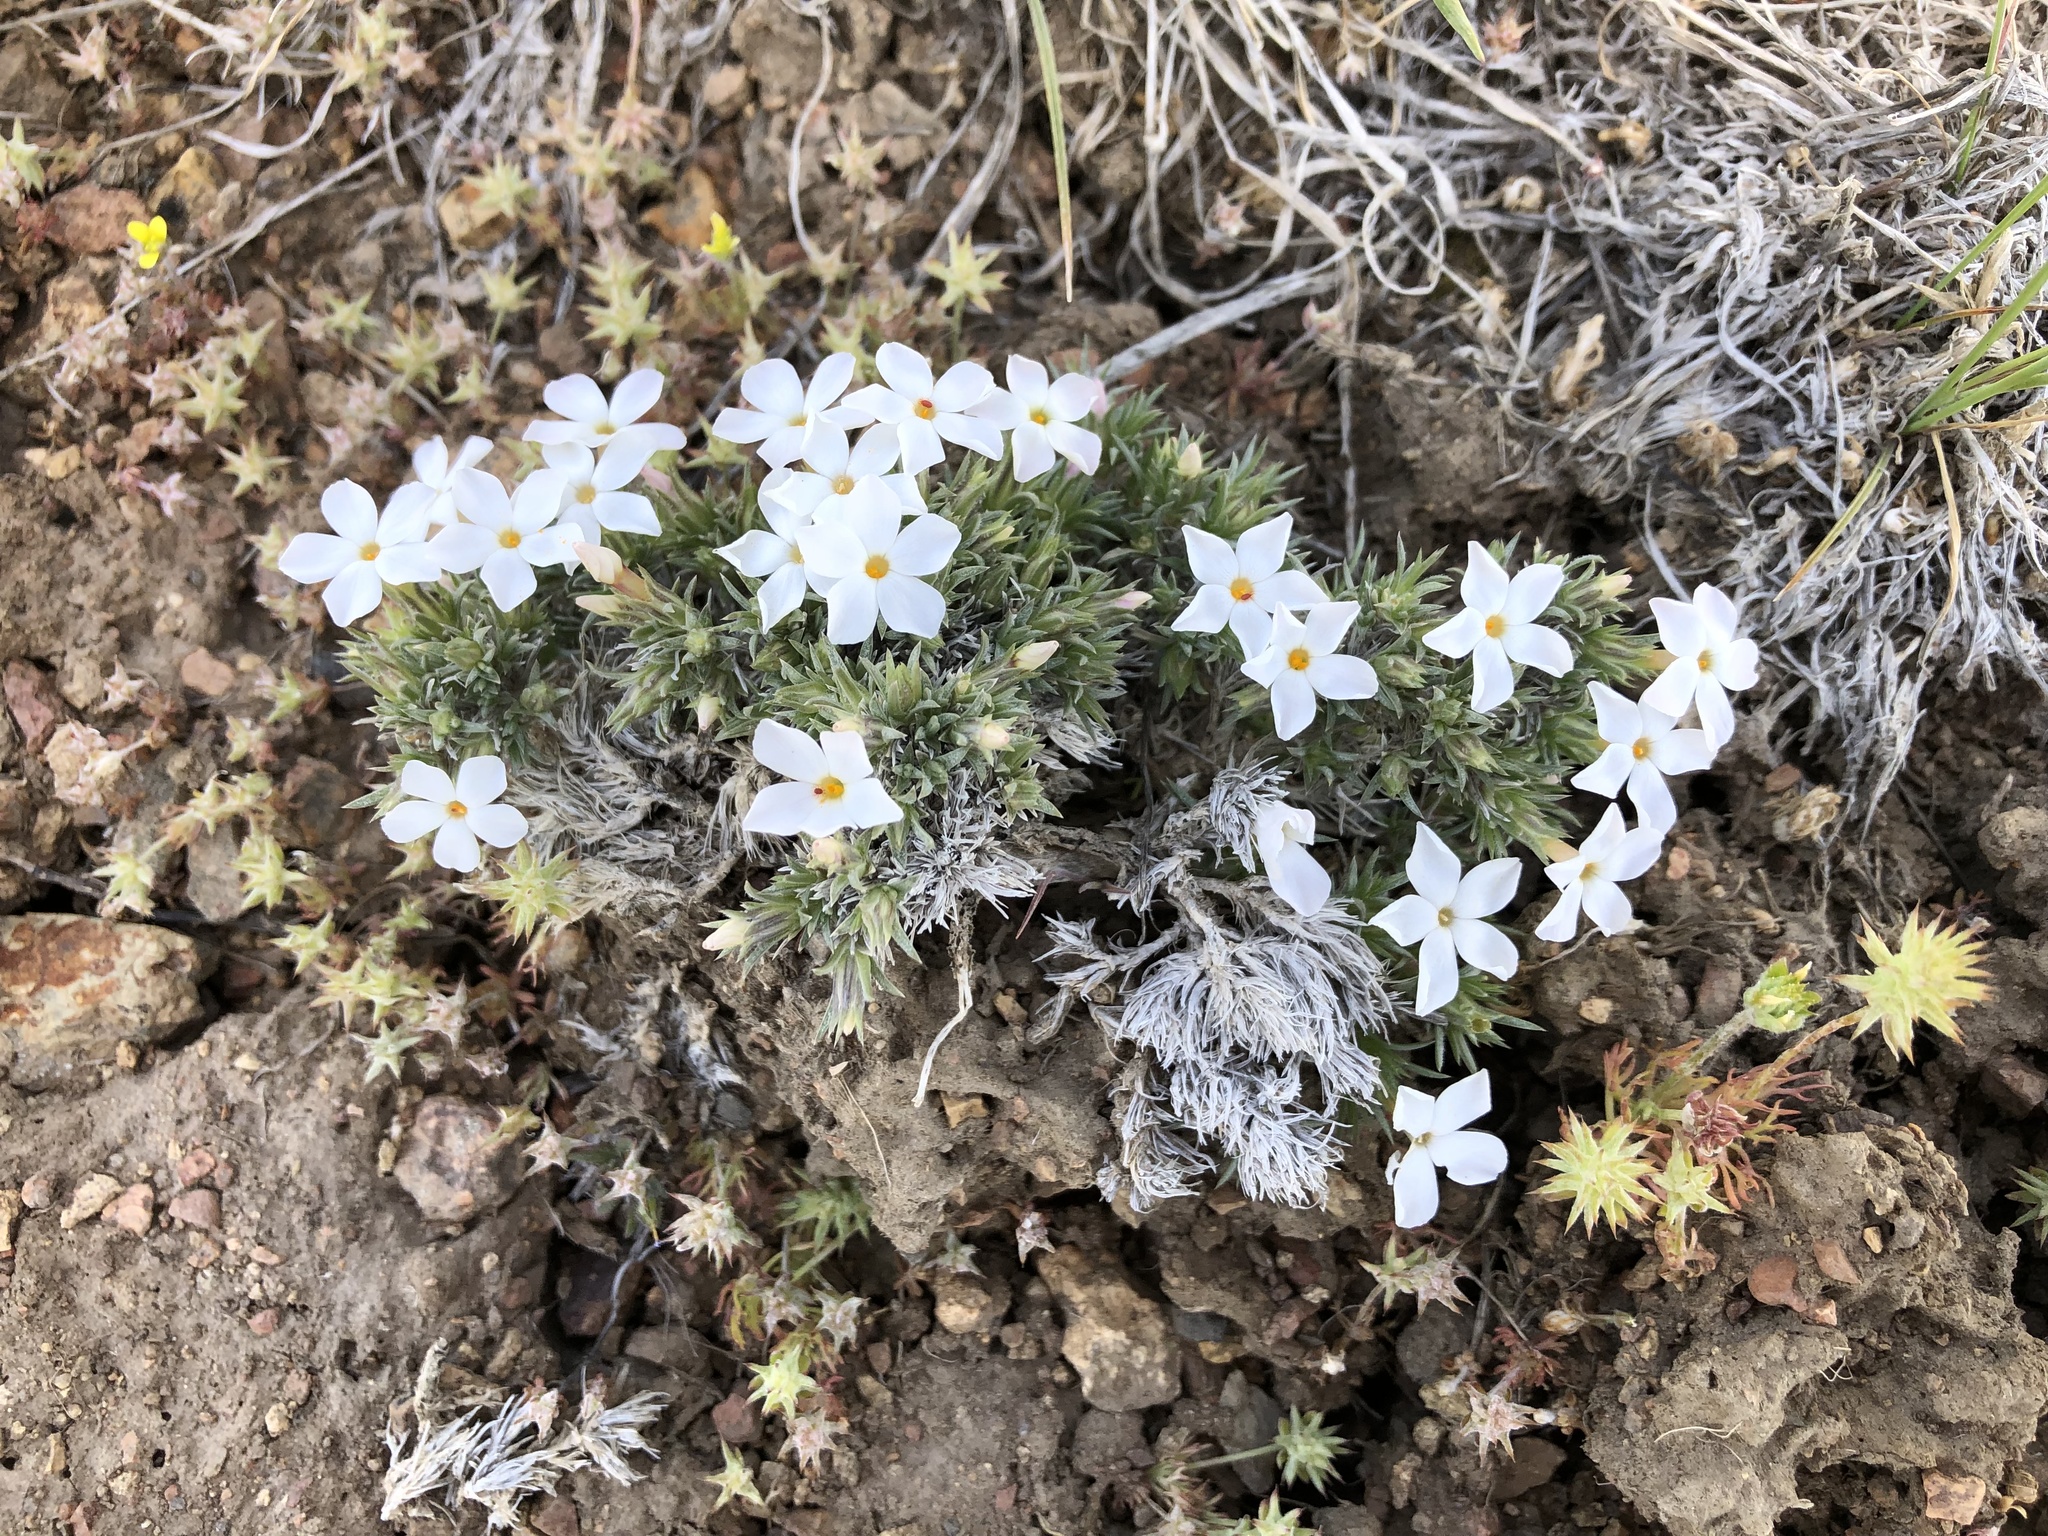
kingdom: Plantae
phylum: Tracheophyta
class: Magnoliopsida
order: Ericales
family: Polemoniaceae
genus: Phlox
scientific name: Phlox hoodii
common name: Moss phlox
